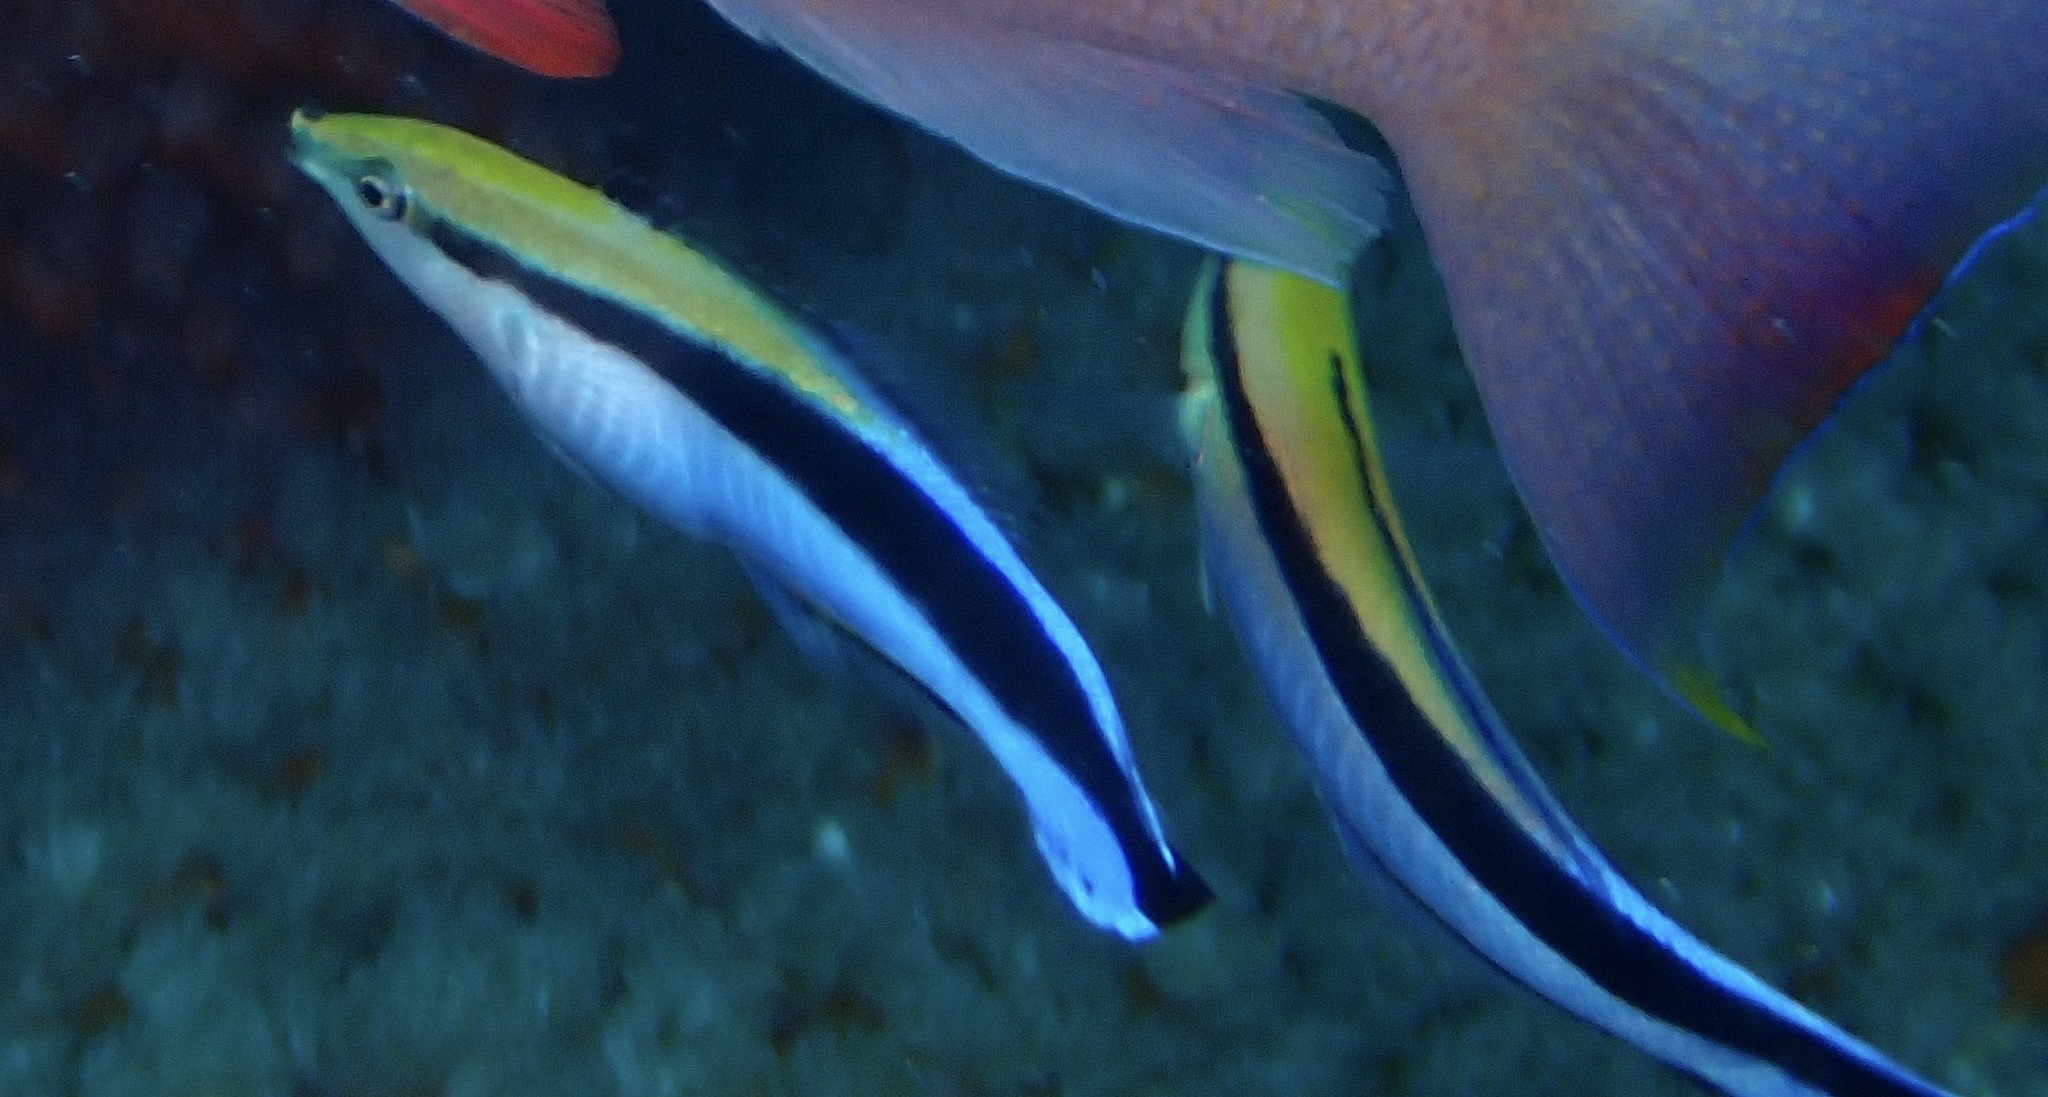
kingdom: Animalia
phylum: Chordata
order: Perciformes
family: Labridae
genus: Labroides
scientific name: Labroides dimidiatus
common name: Blue diesel wrasse
